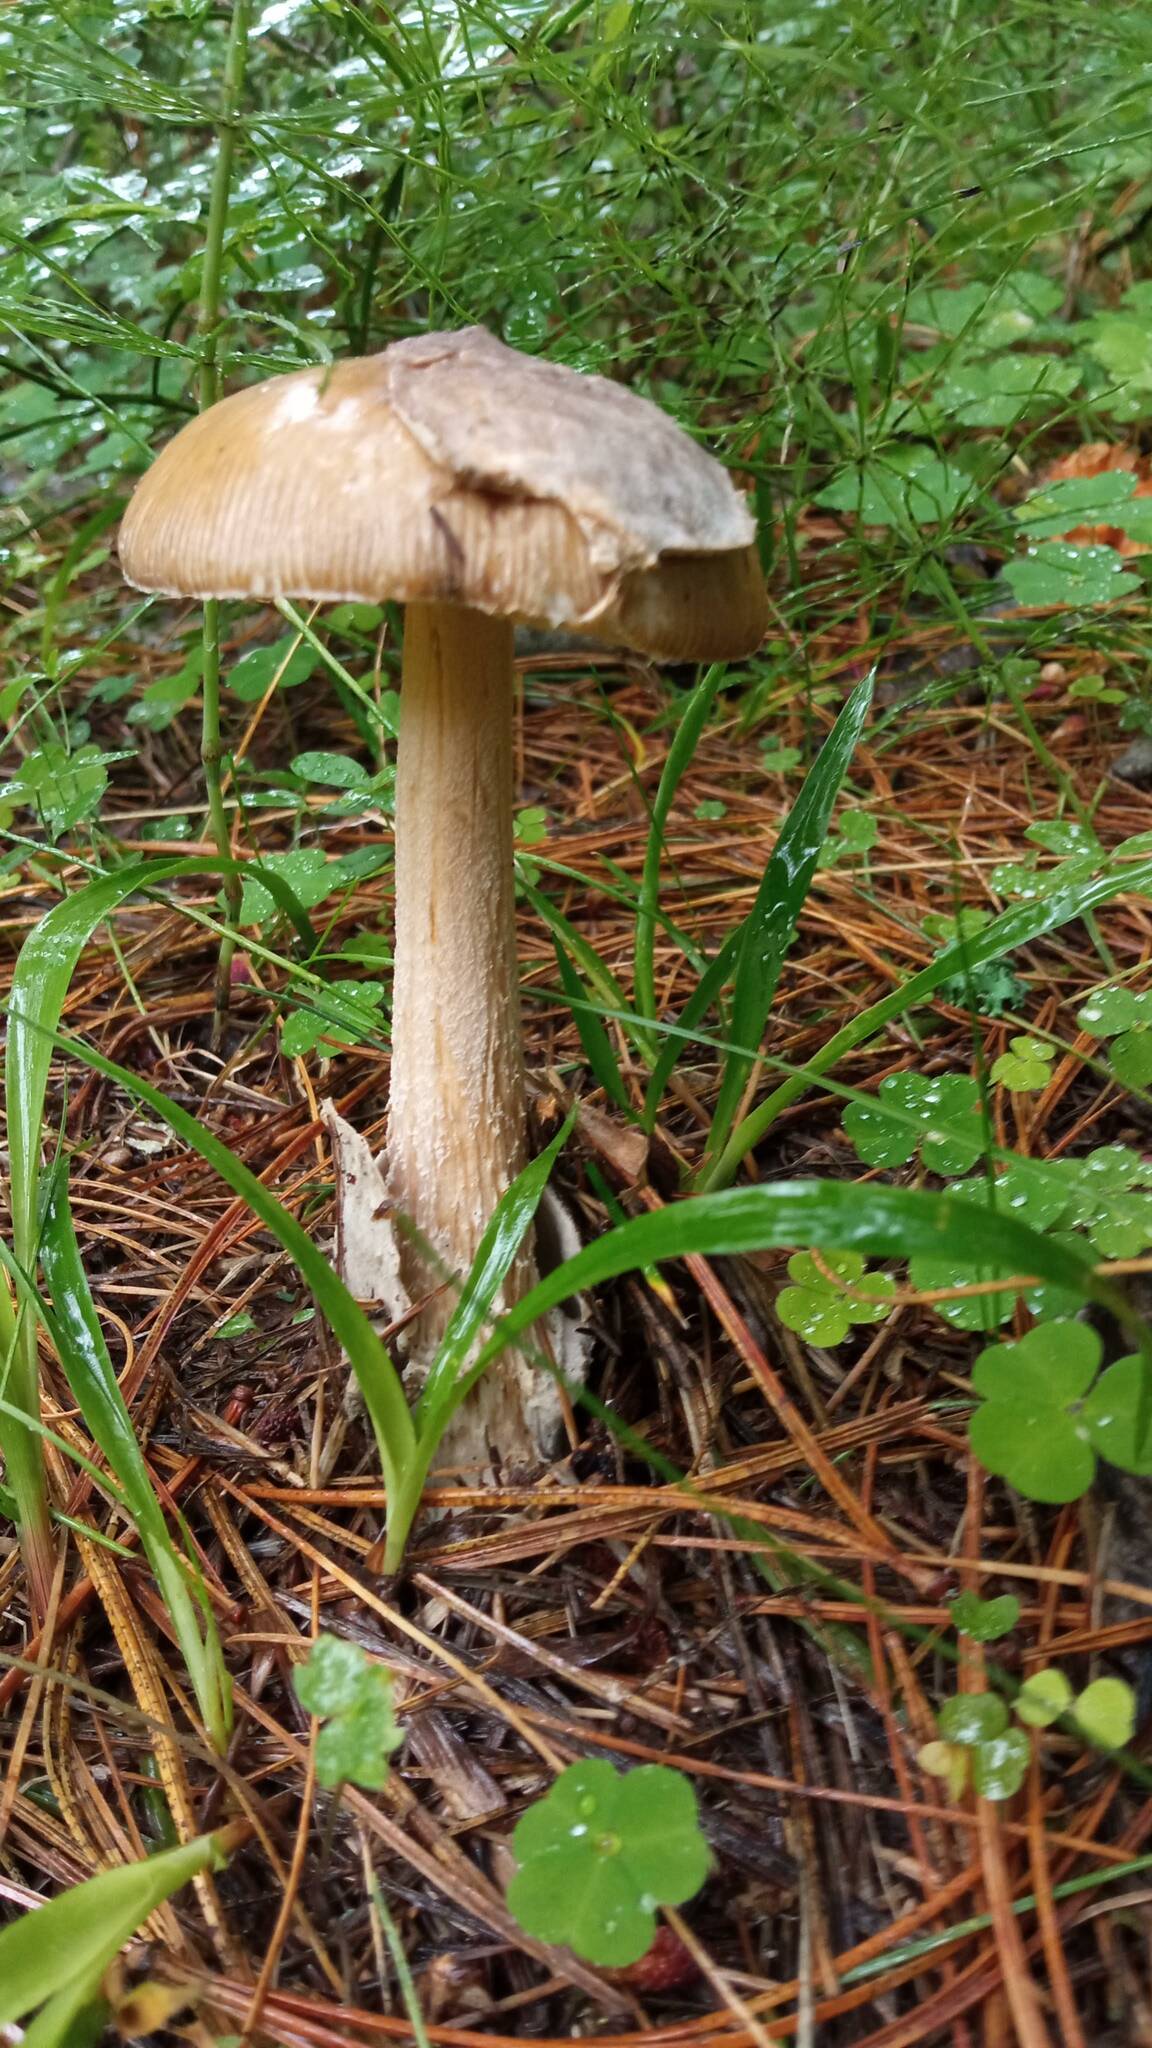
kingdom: Fungi
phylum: Basidiomycota
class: Agaricomycetes
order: Agaricales
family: Amanitaceae
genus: Amanita
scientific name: Amanita submembranacea
